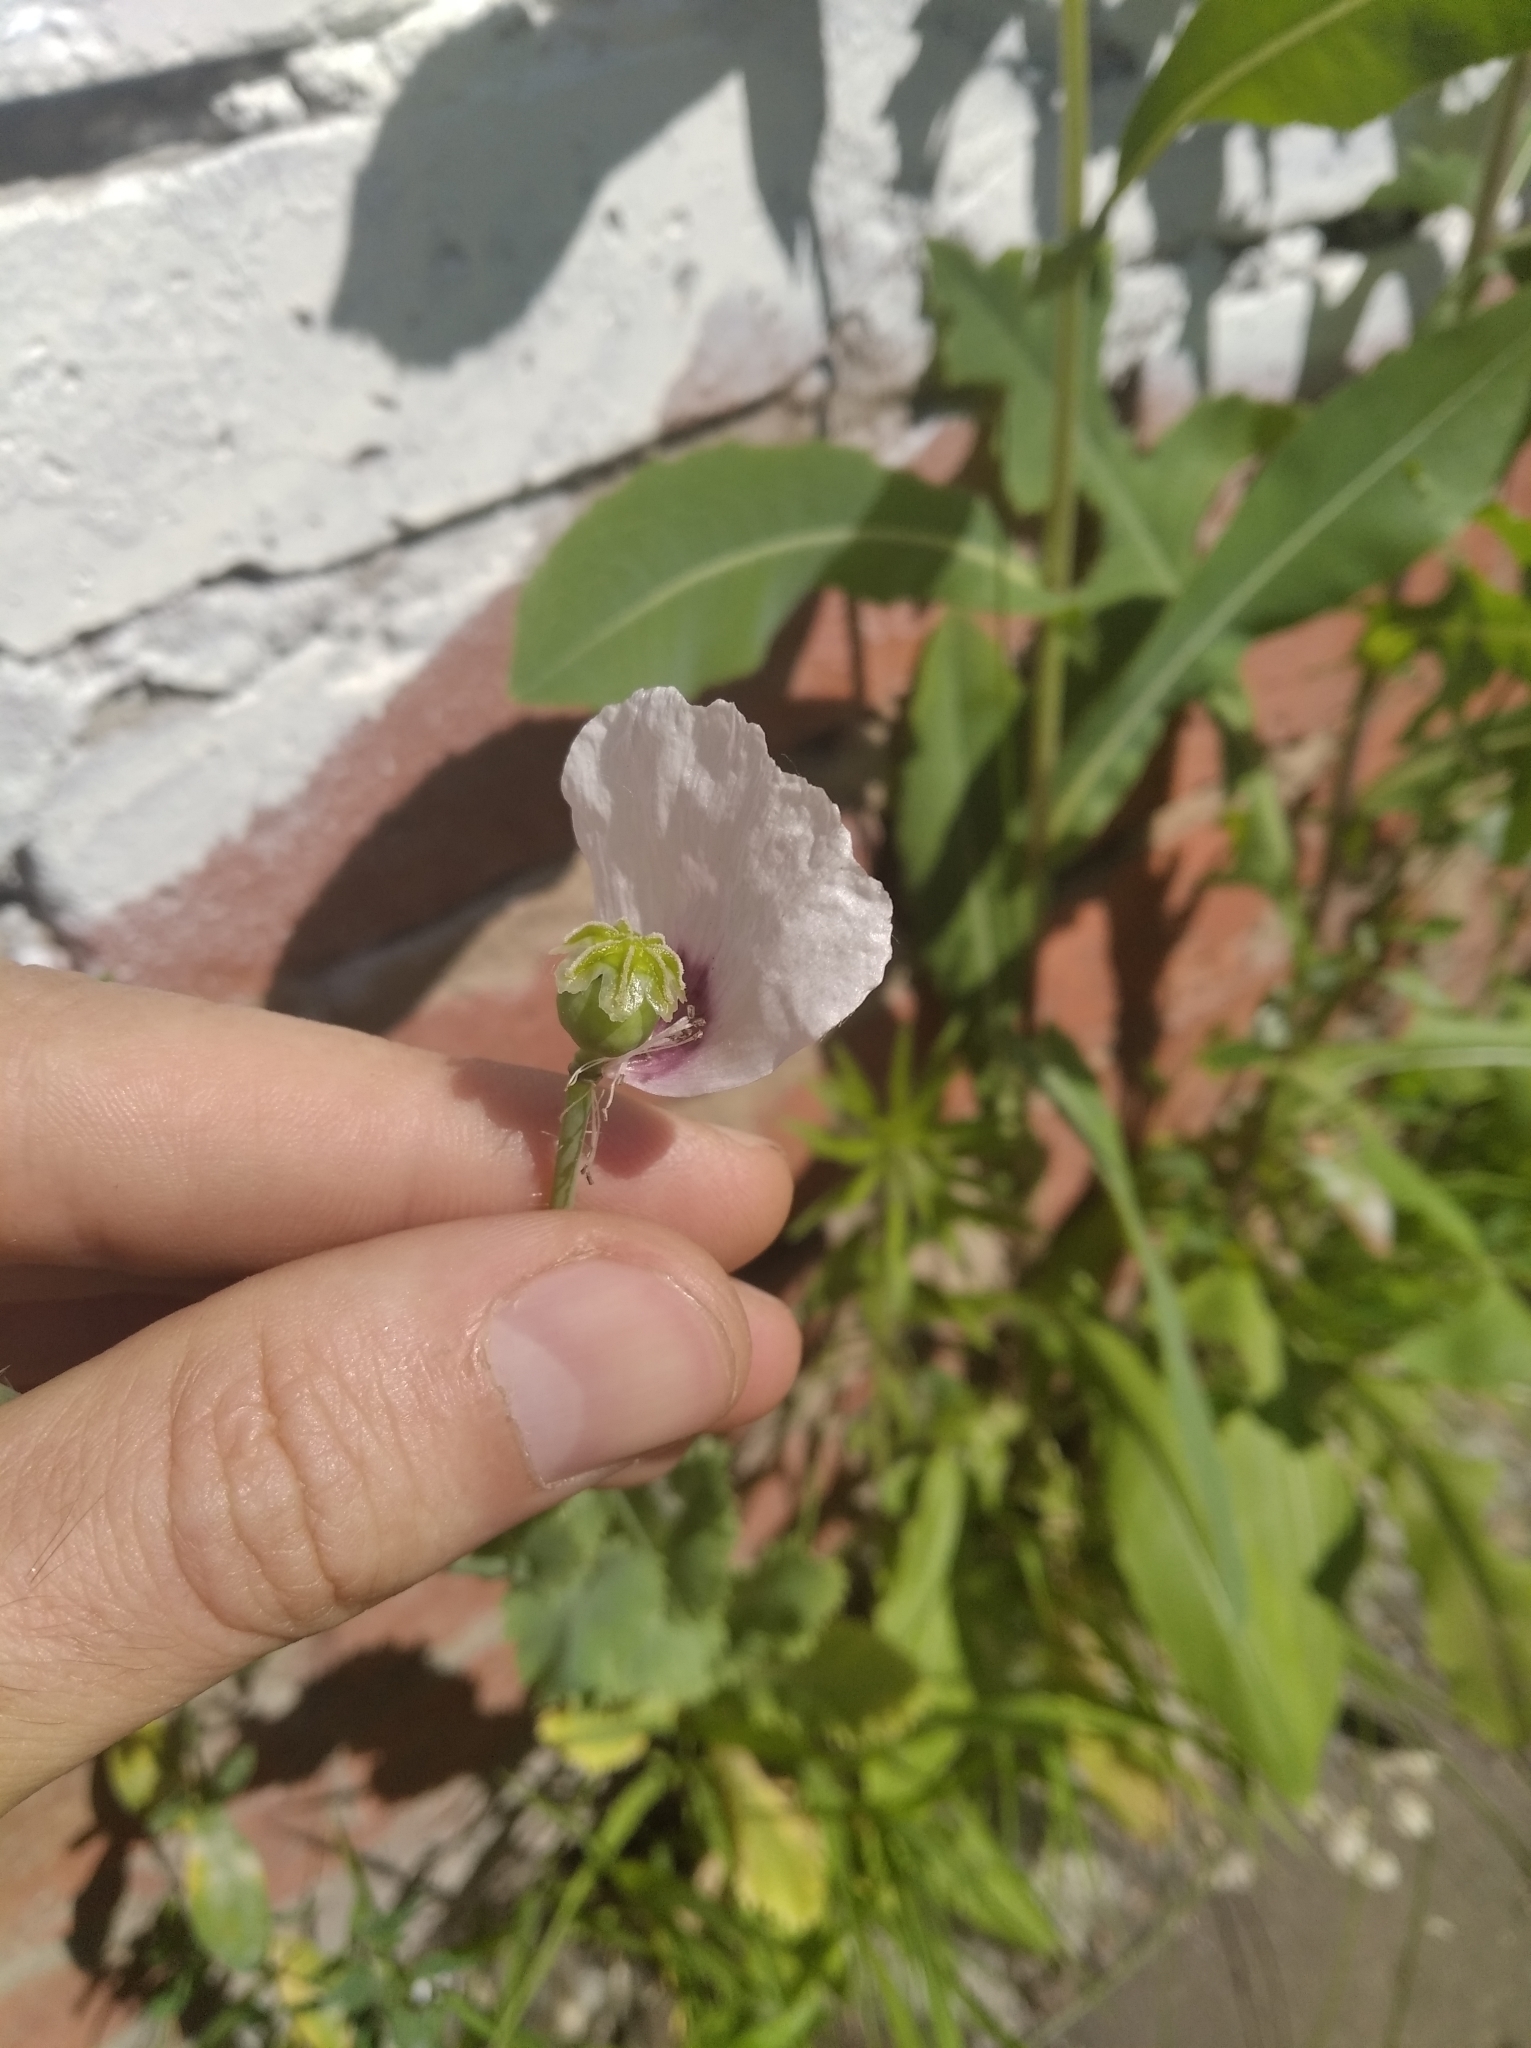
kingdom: Plantae
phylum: Tracheophyta
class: Magnoliopsida
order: Ranunculales
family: Papaveraceae
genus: Papaver
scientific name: Papaver somniferum
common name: Opium poppy
